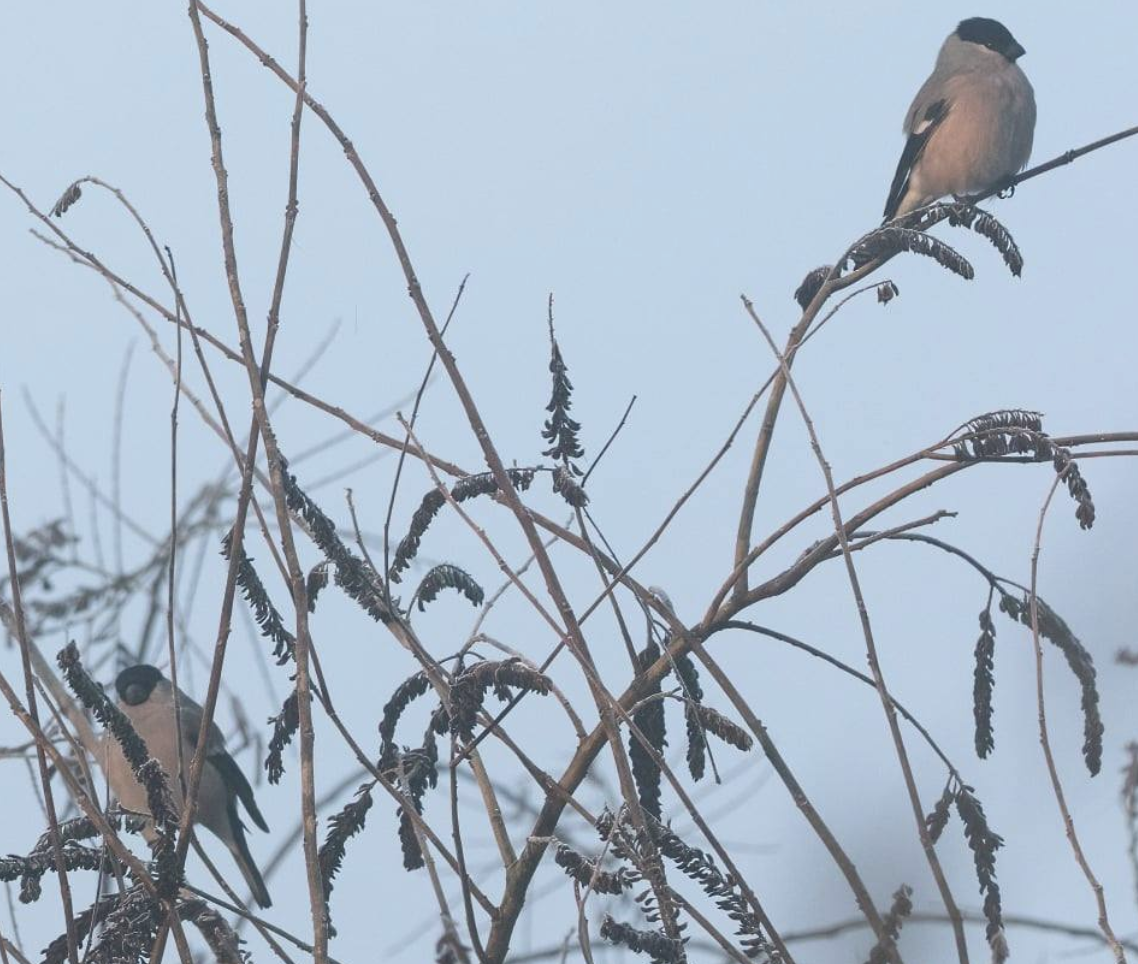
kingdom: Animalia
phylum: Chordata
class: Aves
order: Passeriformes
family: Fringillidae
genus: Pyrrhula
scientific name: Pyrrhula pyrrhula
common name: Eurasian bullfinch
